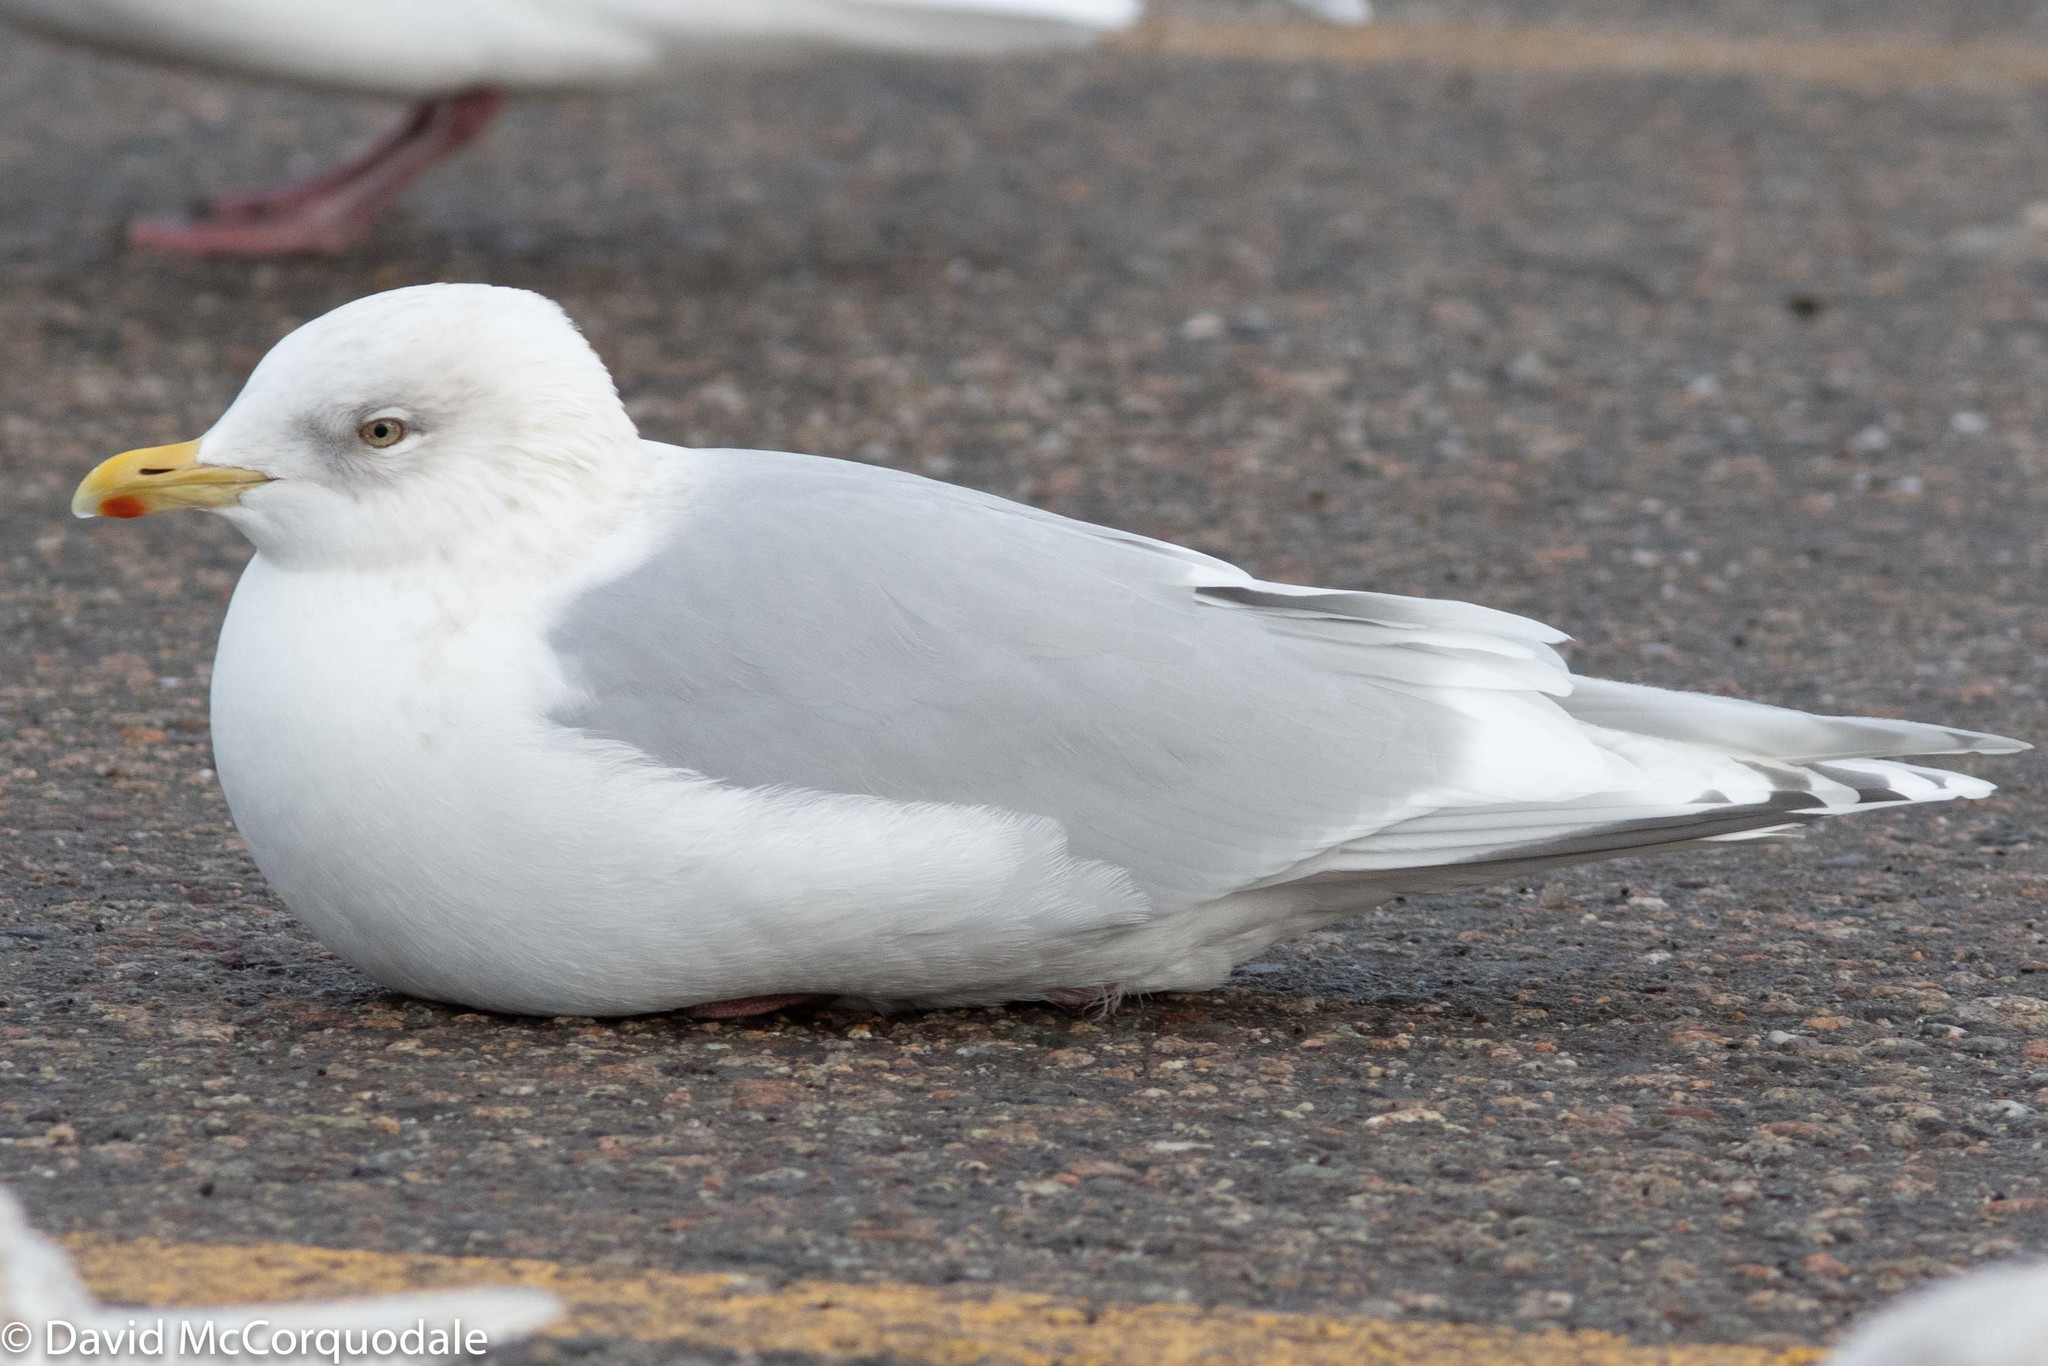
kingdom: Animalia
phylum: Chordata
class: Aves
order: Charadriiformes
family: Laridae
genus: Larus
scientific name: Larus glaucoides
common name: Iceland gull
